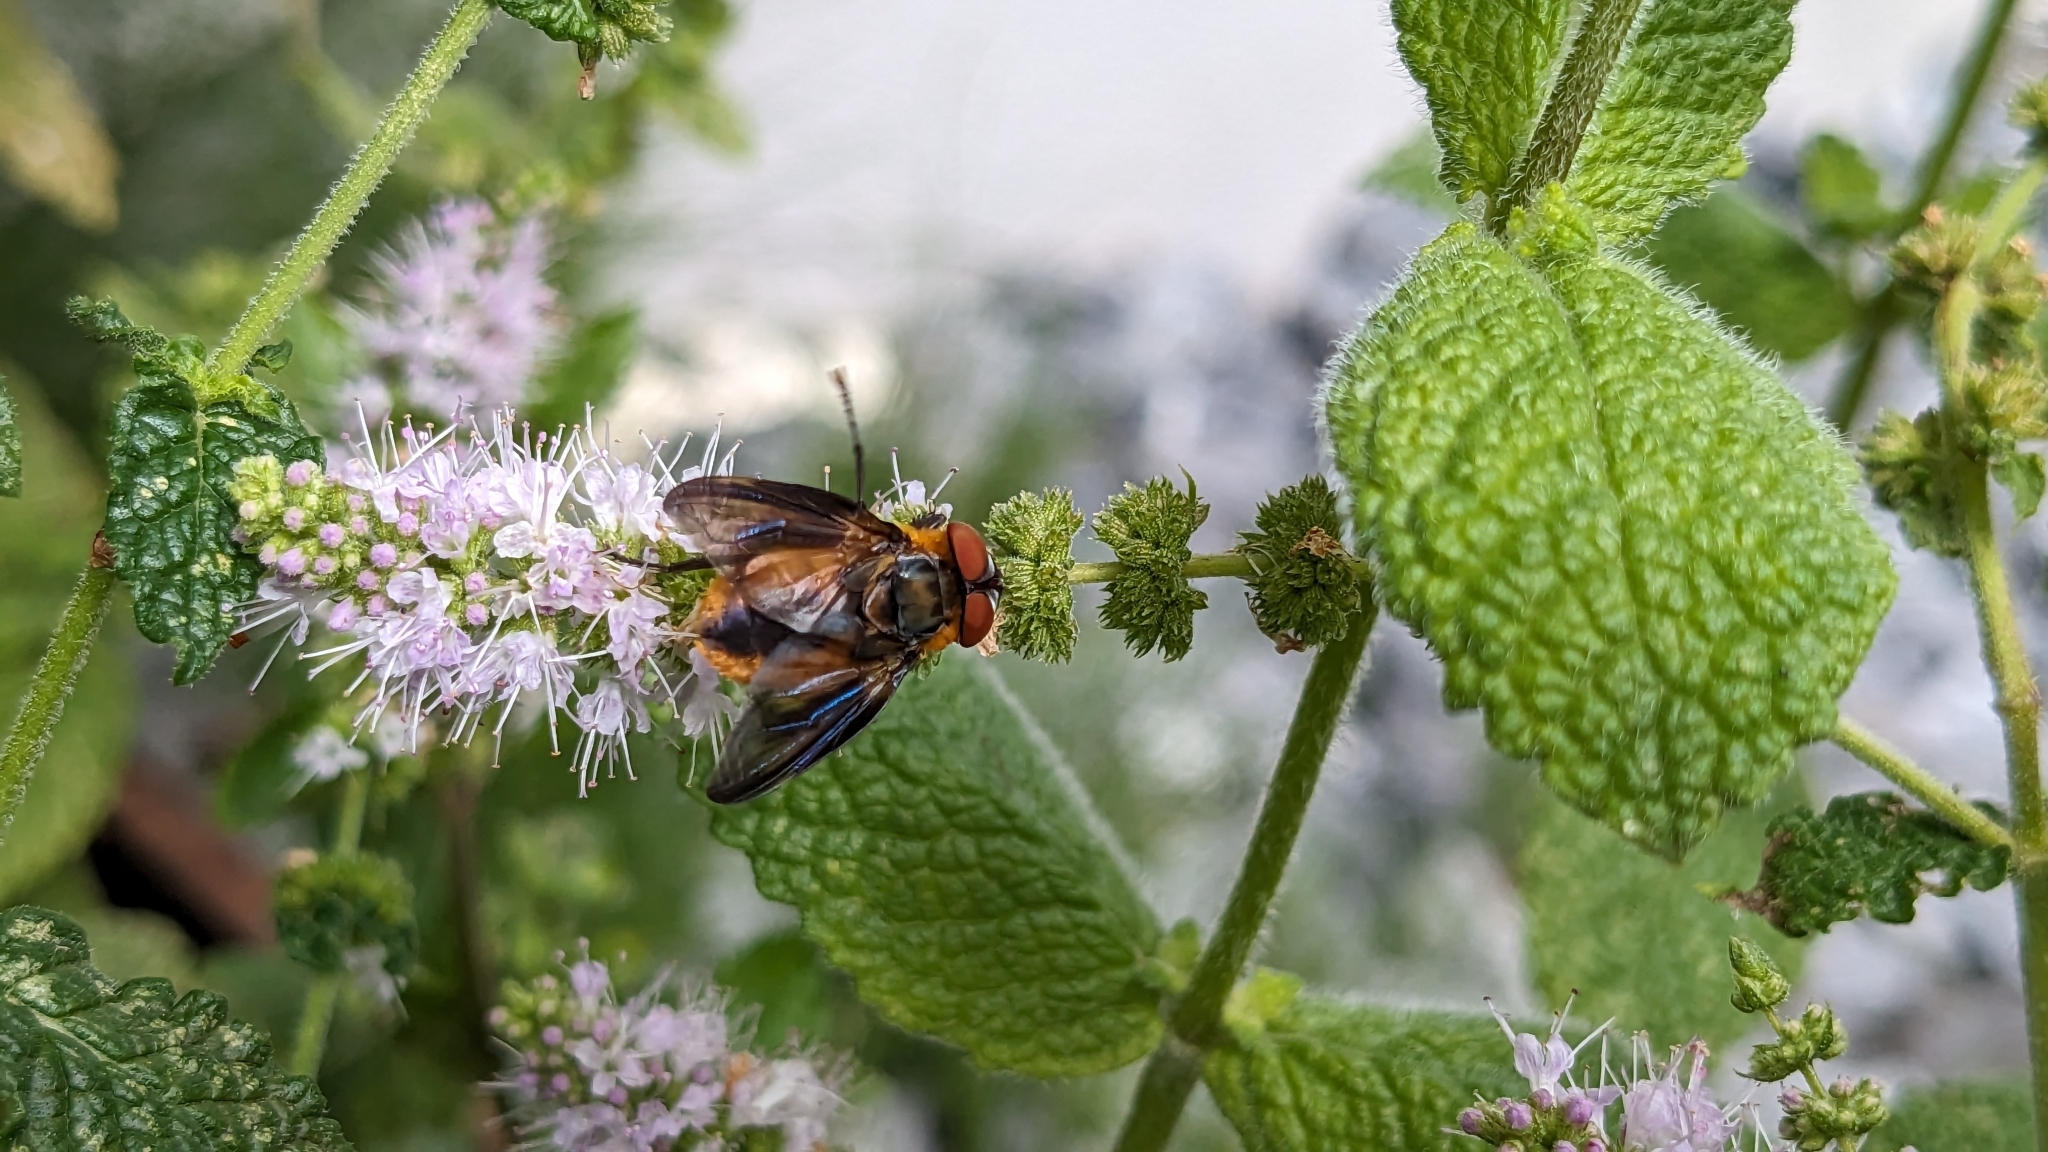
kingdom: Animalia
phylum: Arthropoda
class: Insecta
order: Diptera
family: Tachinidae
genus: Phasia
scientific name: Phasia hemiptera
